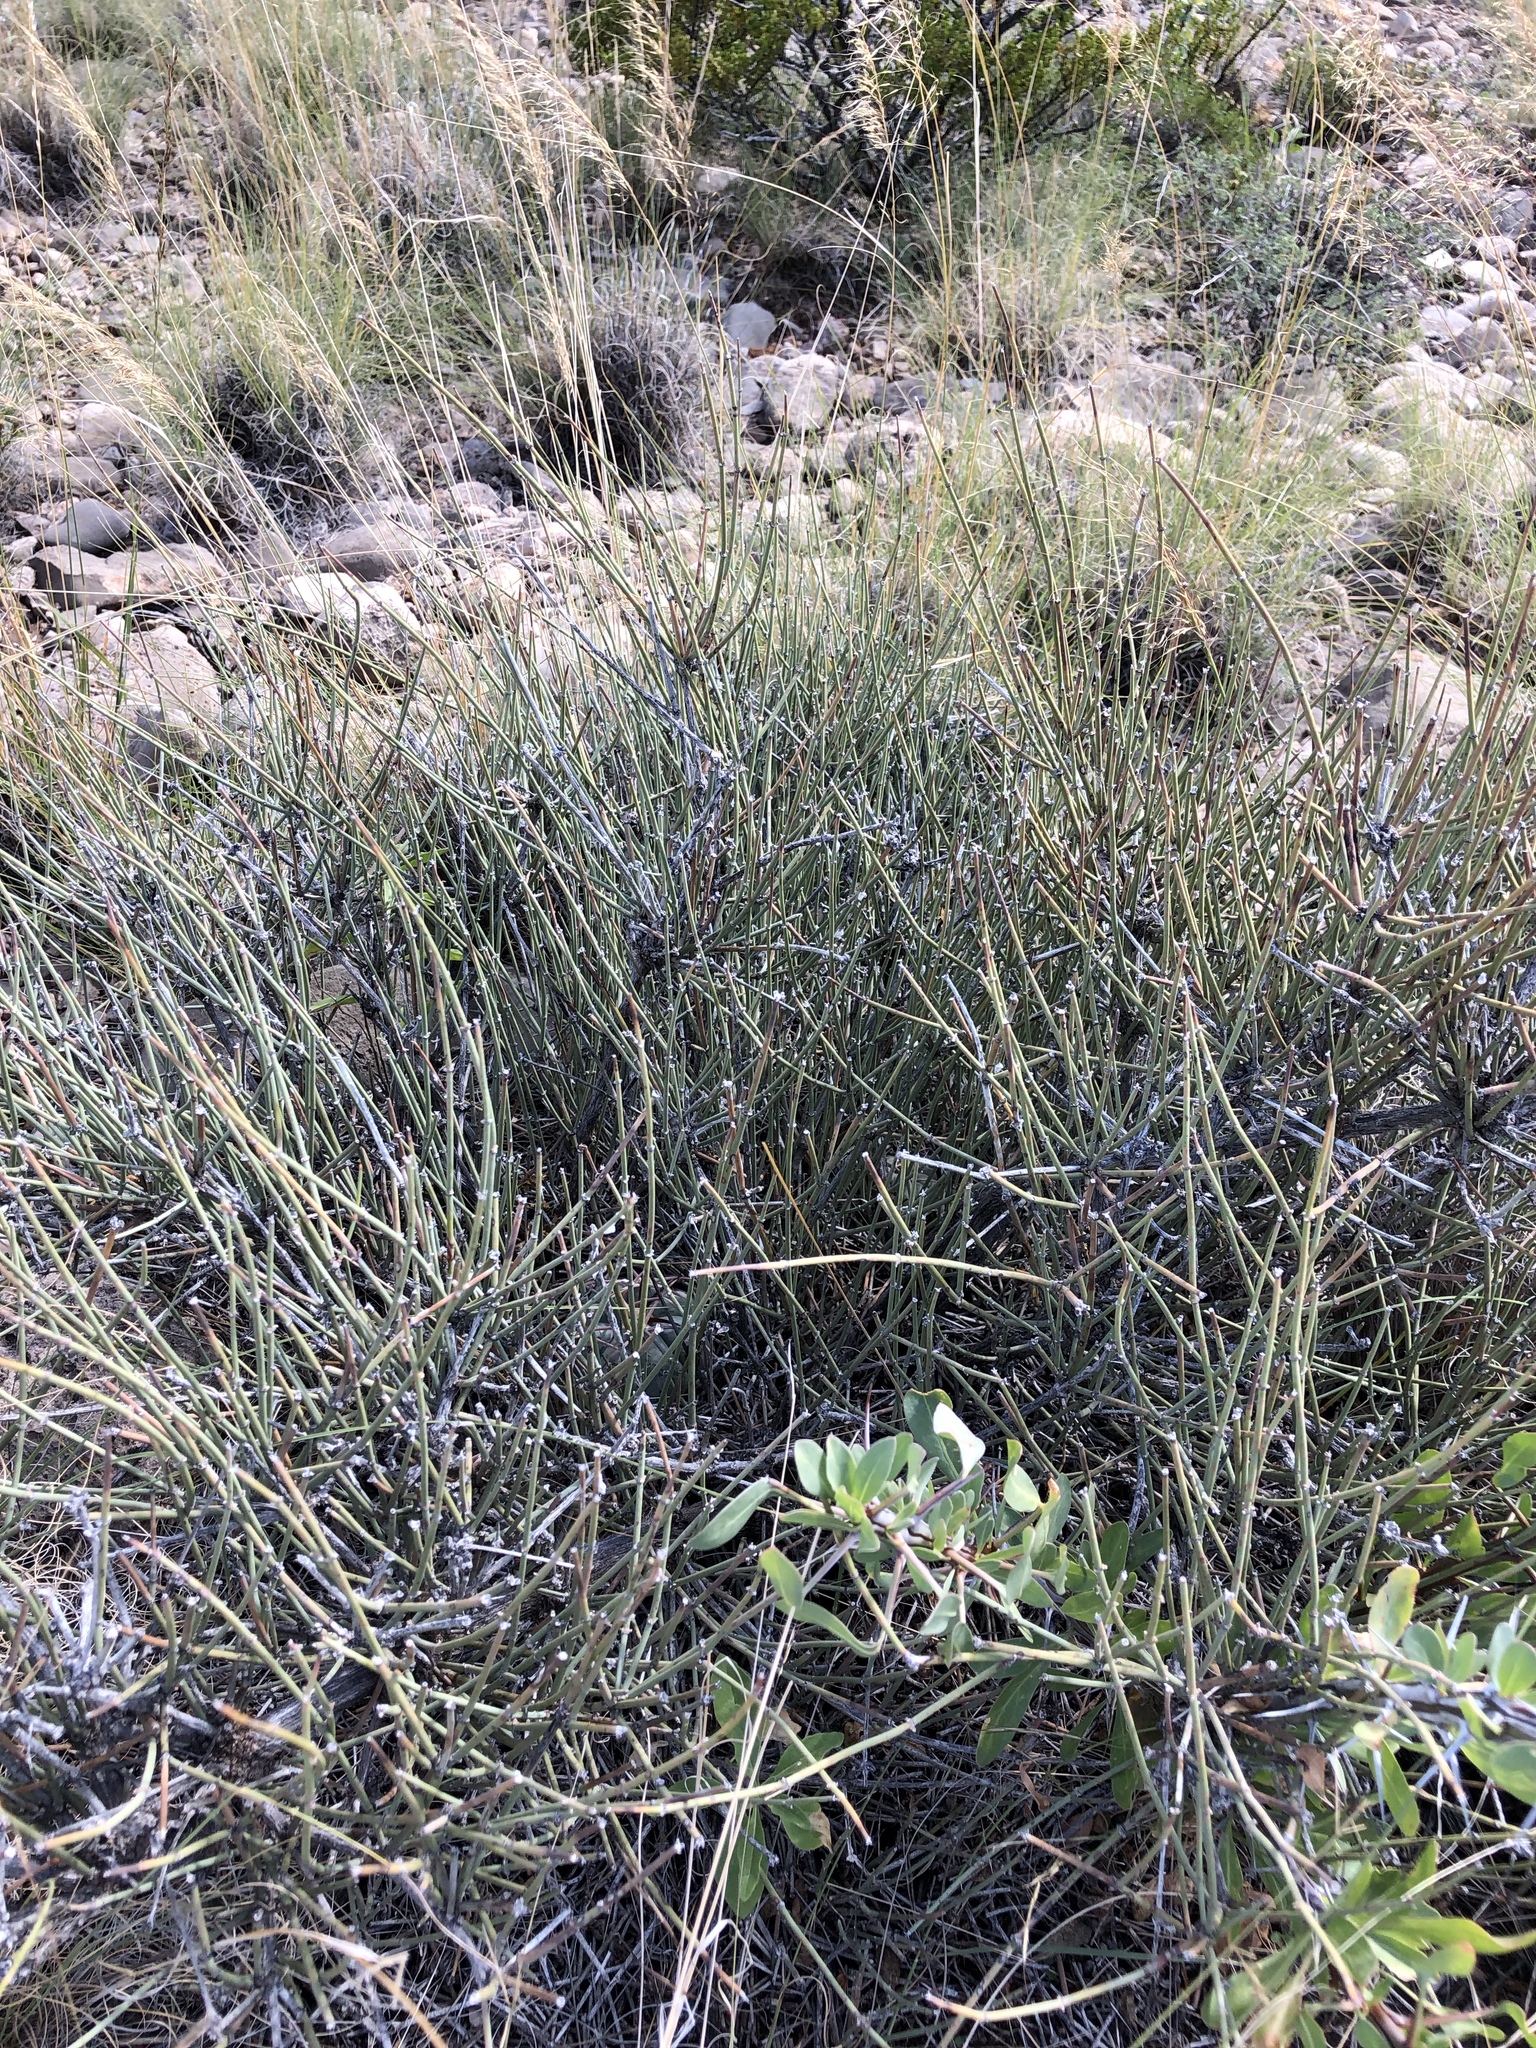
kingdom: Plantae
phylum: Tracheophyta
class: Gnetopsida
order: Ephedrales
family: Ephedraceae
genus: Ephedra
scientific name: Ephedra trifurca
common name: Mexican-tea
